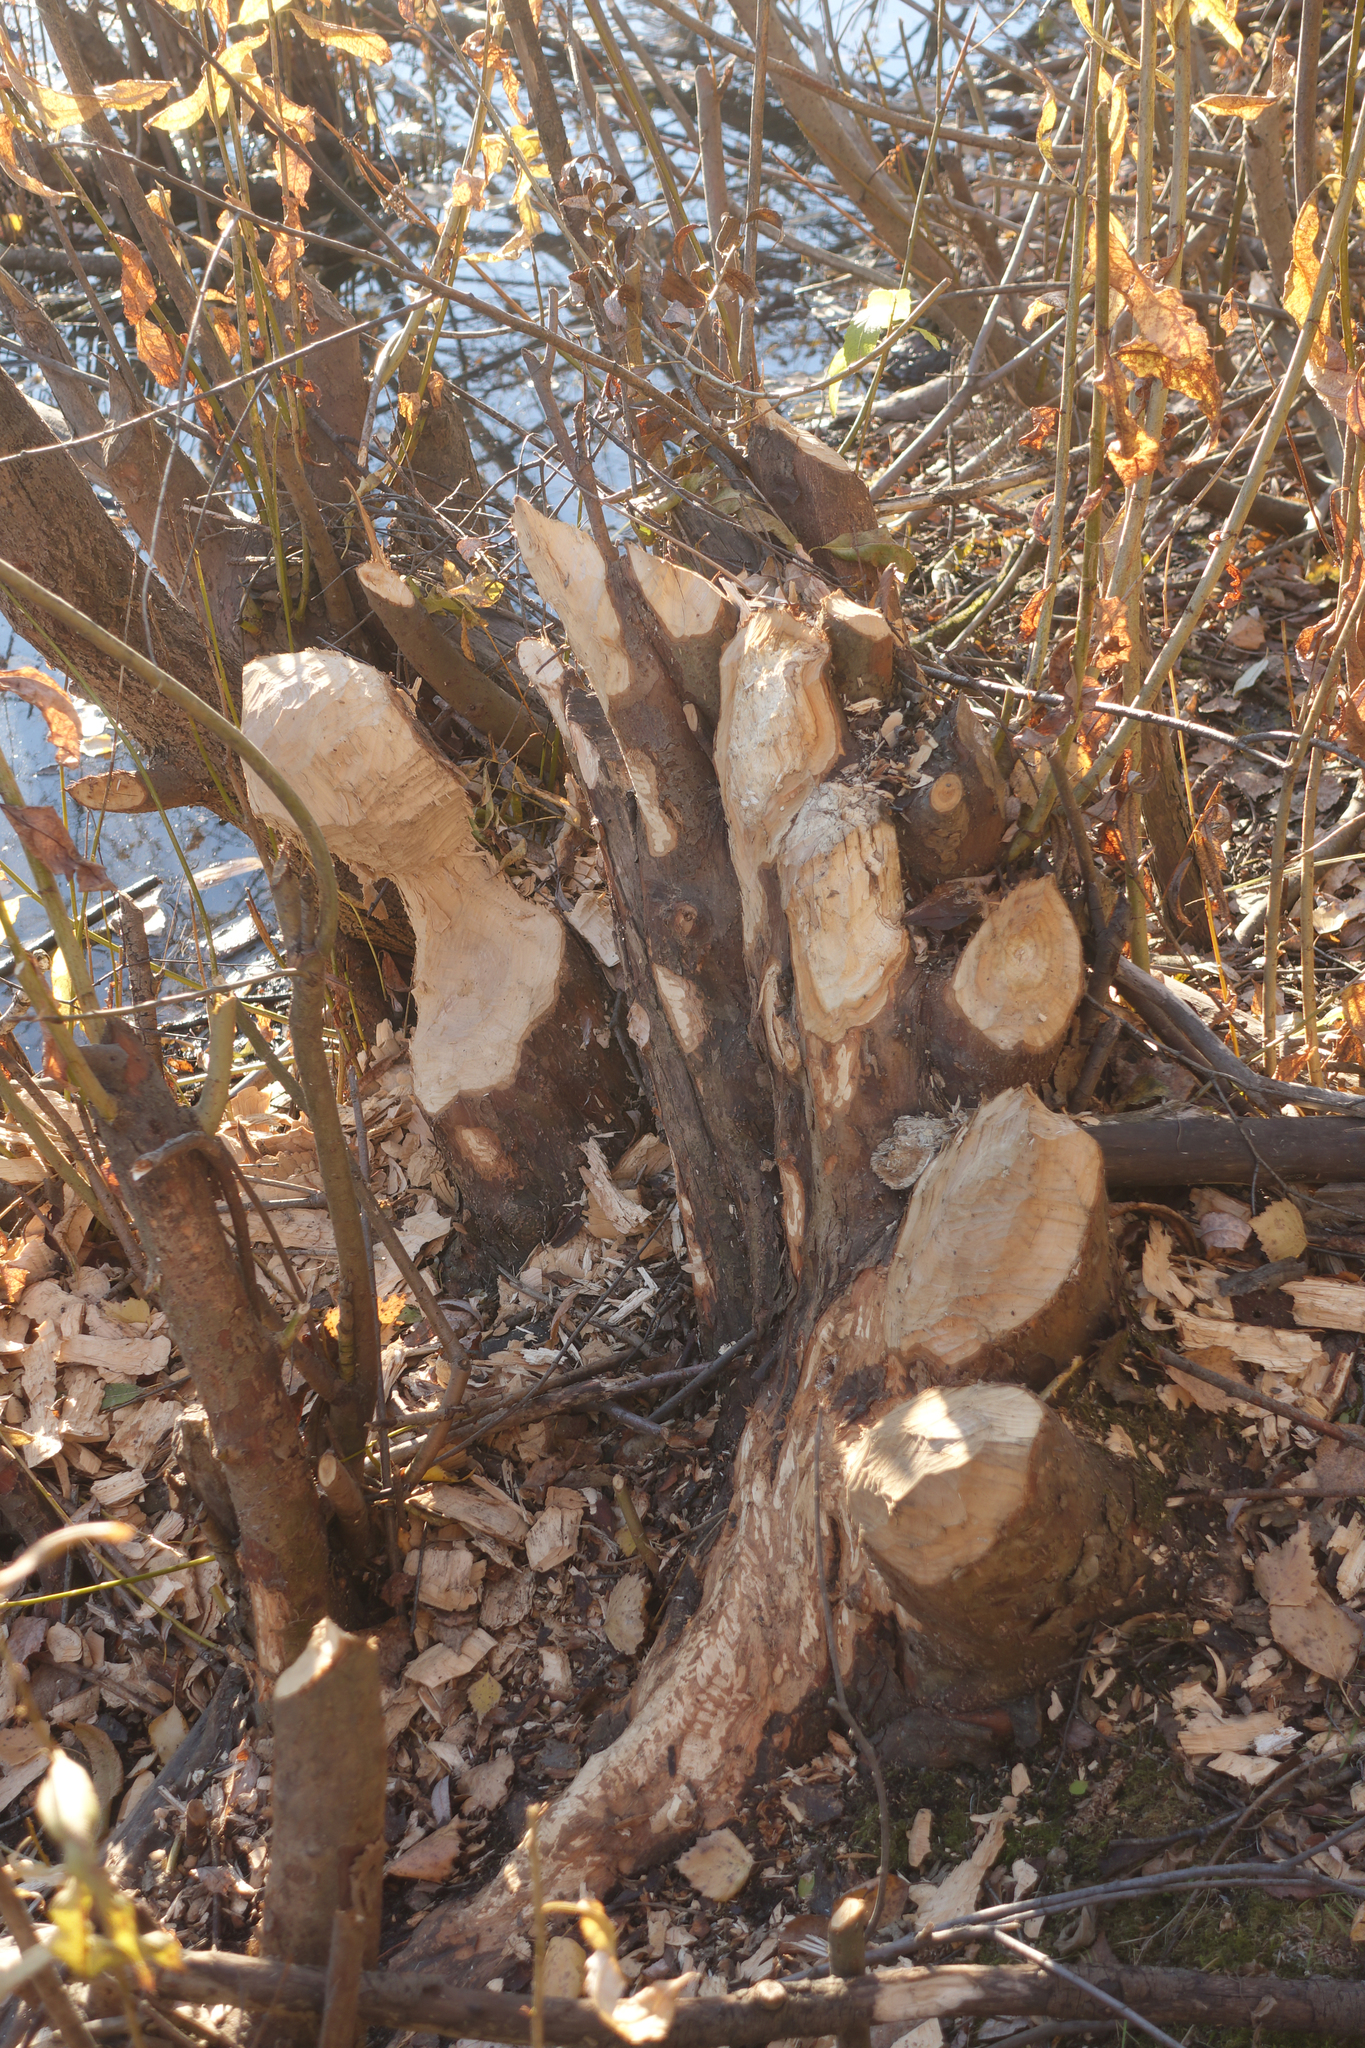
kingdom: Animalia
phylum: Chordata
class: Mammalia
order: Rodentia
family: Castoridae
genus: Castor
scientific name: Castor fiber
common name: Eurasian beaver
